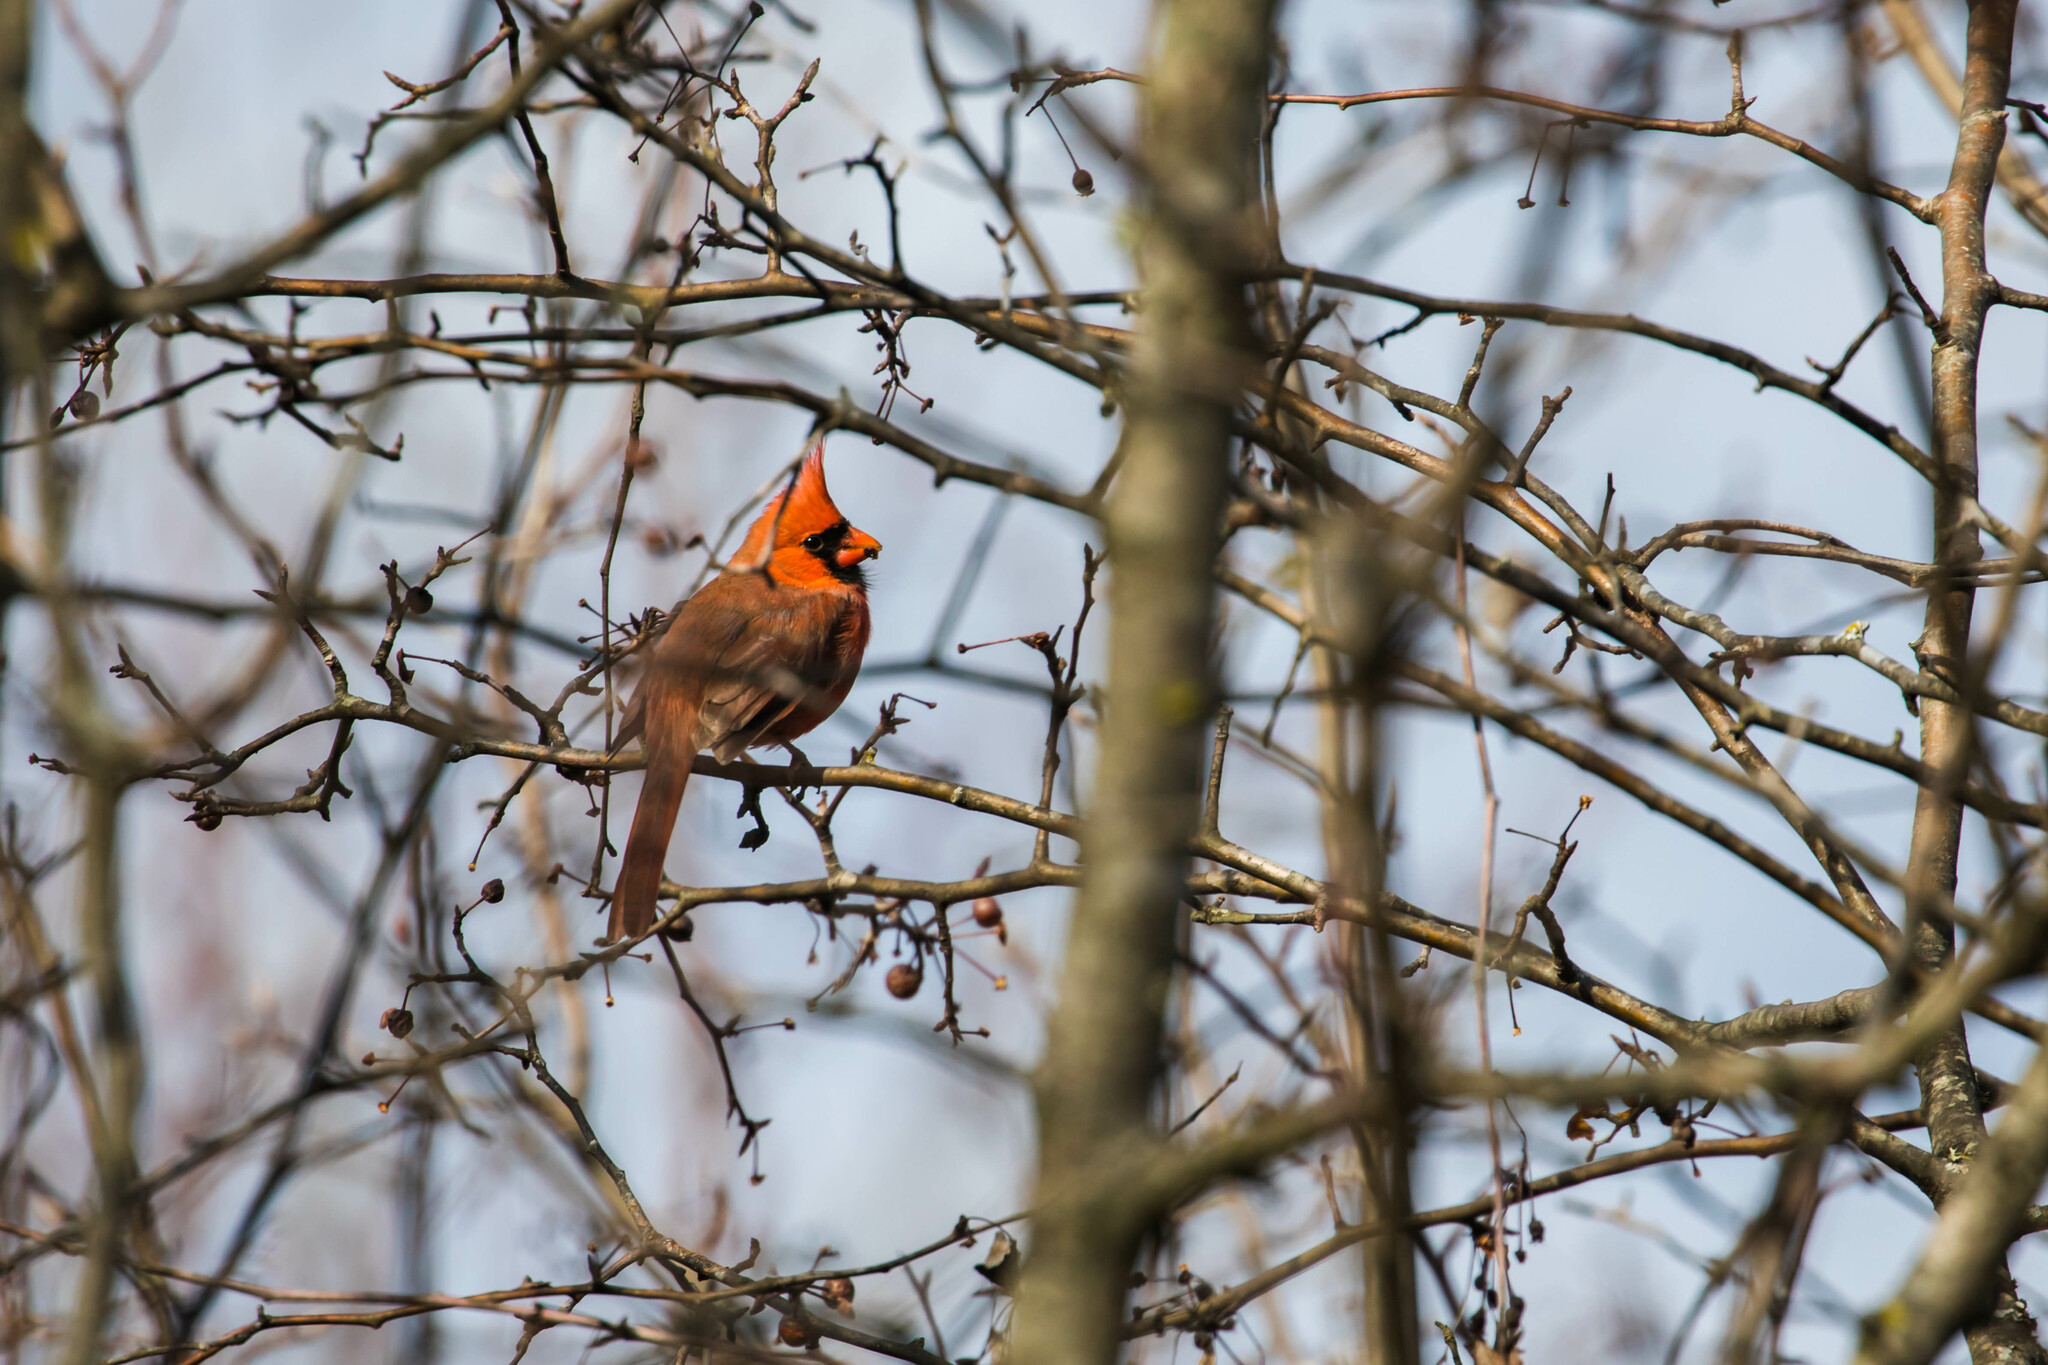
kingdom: Animalia
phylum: Chordata
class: Aves
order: Passeriformes
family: Cardinalidae
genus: Cardinalis
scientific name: Cardinalis cardinalis
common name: Northern cardinal
